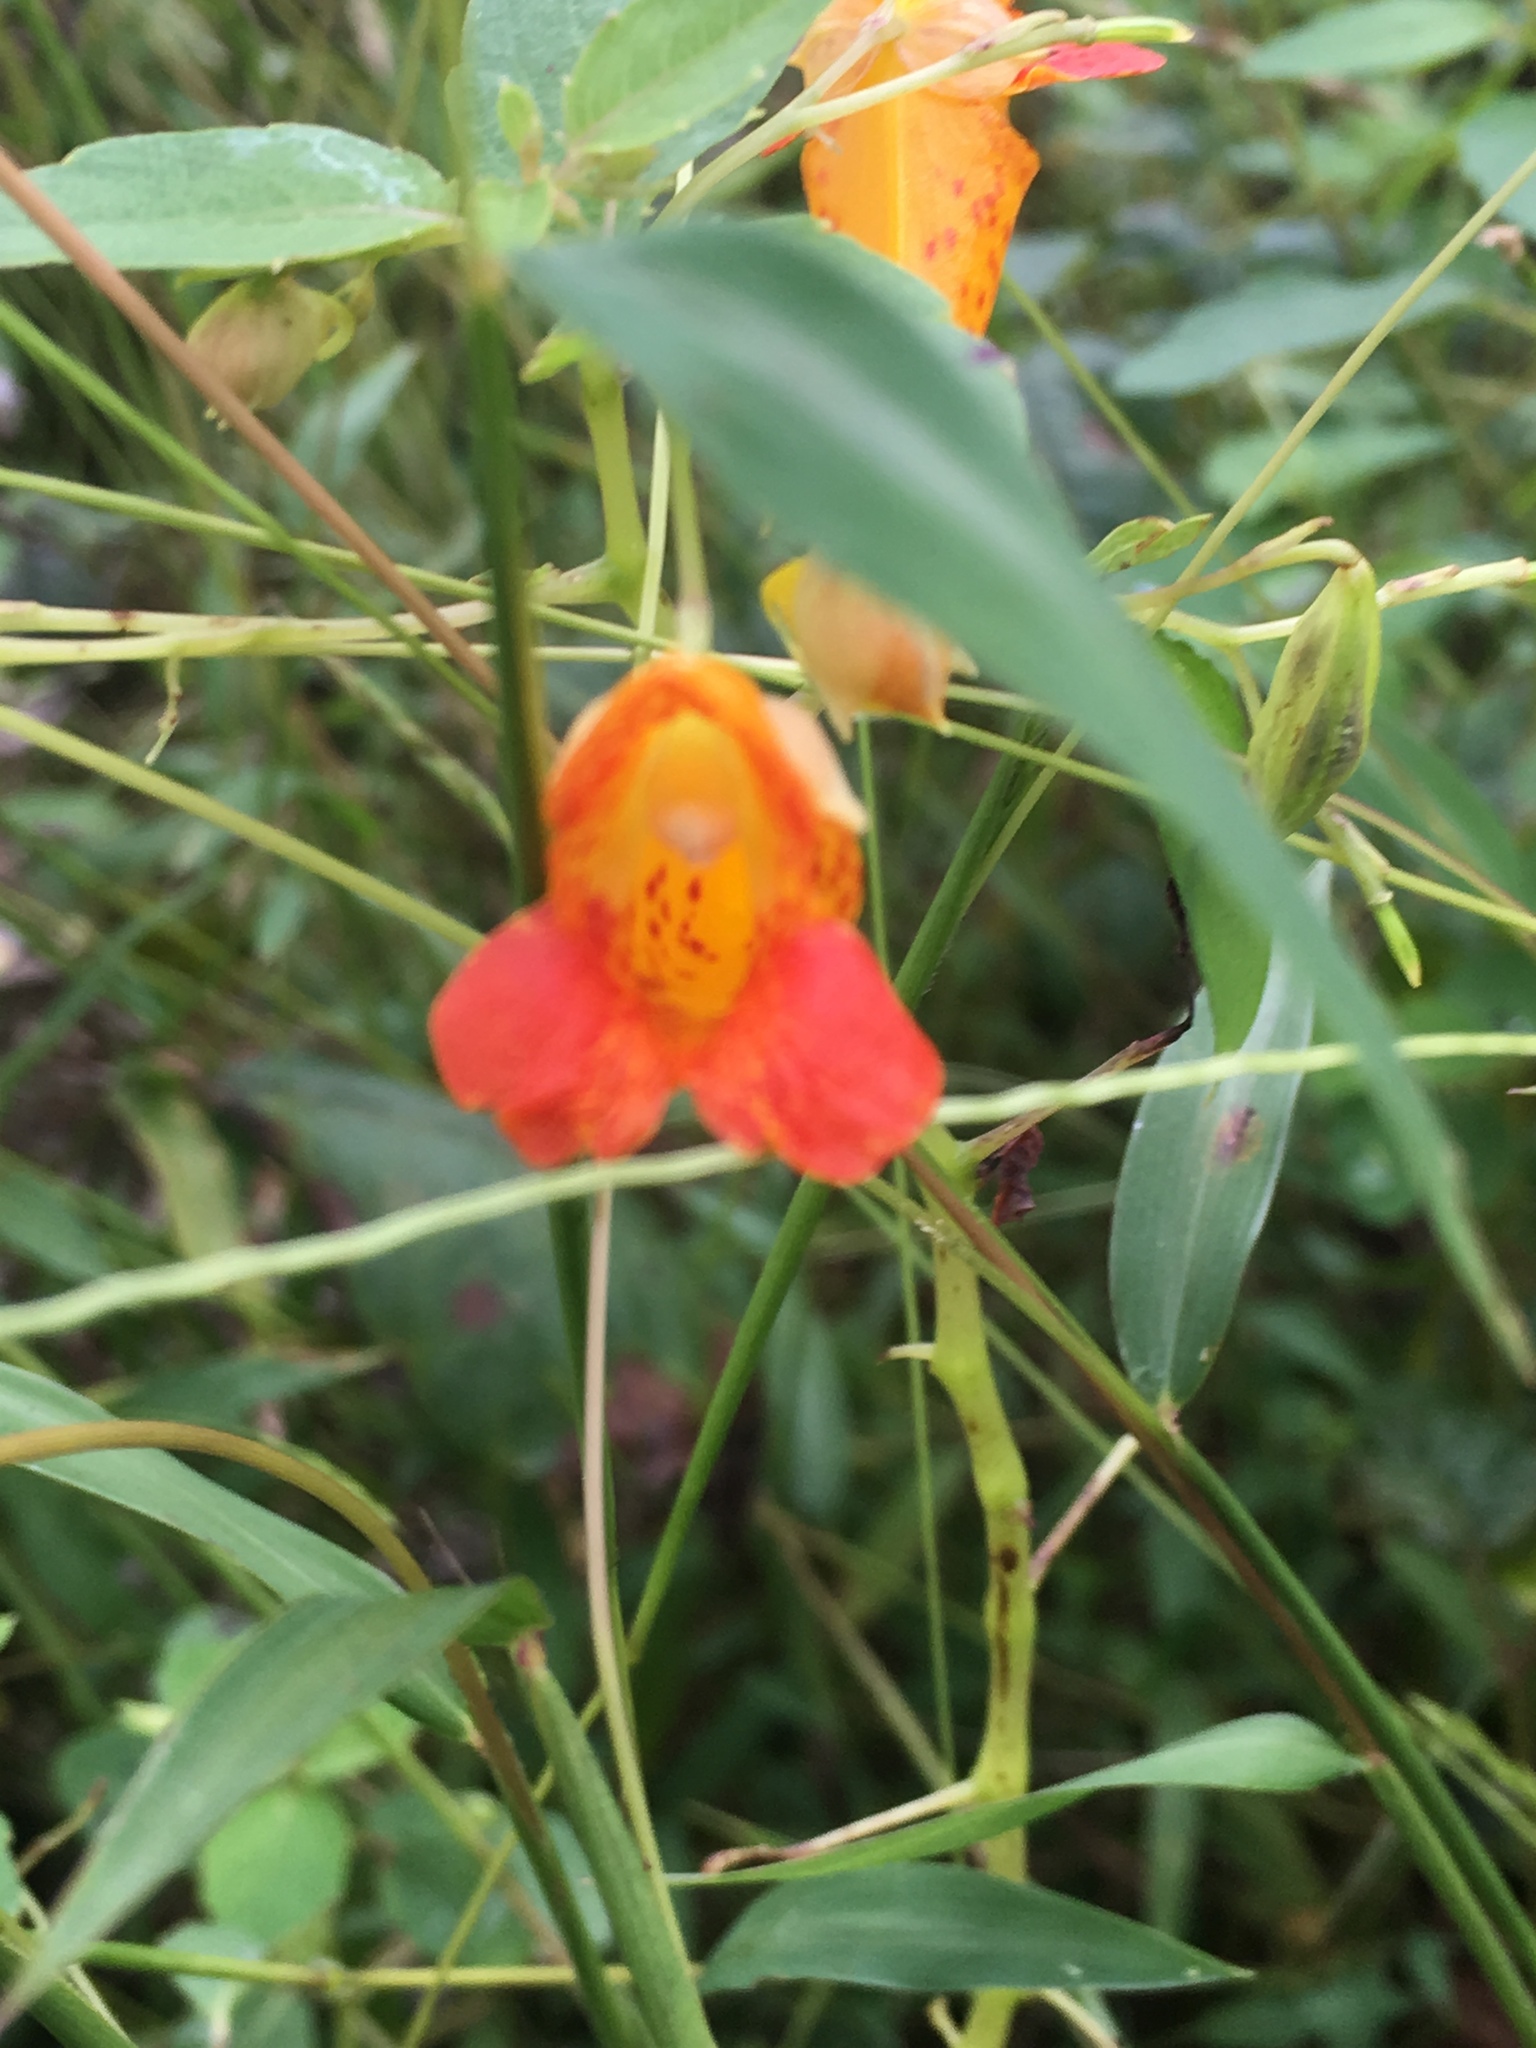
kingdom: Plantae
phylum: Tracheophyta
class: Magnoliopsida
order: Ericales
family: Balsaminaceae
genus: Impatiens
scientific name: Impatiens capensis
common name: Orange balsam
